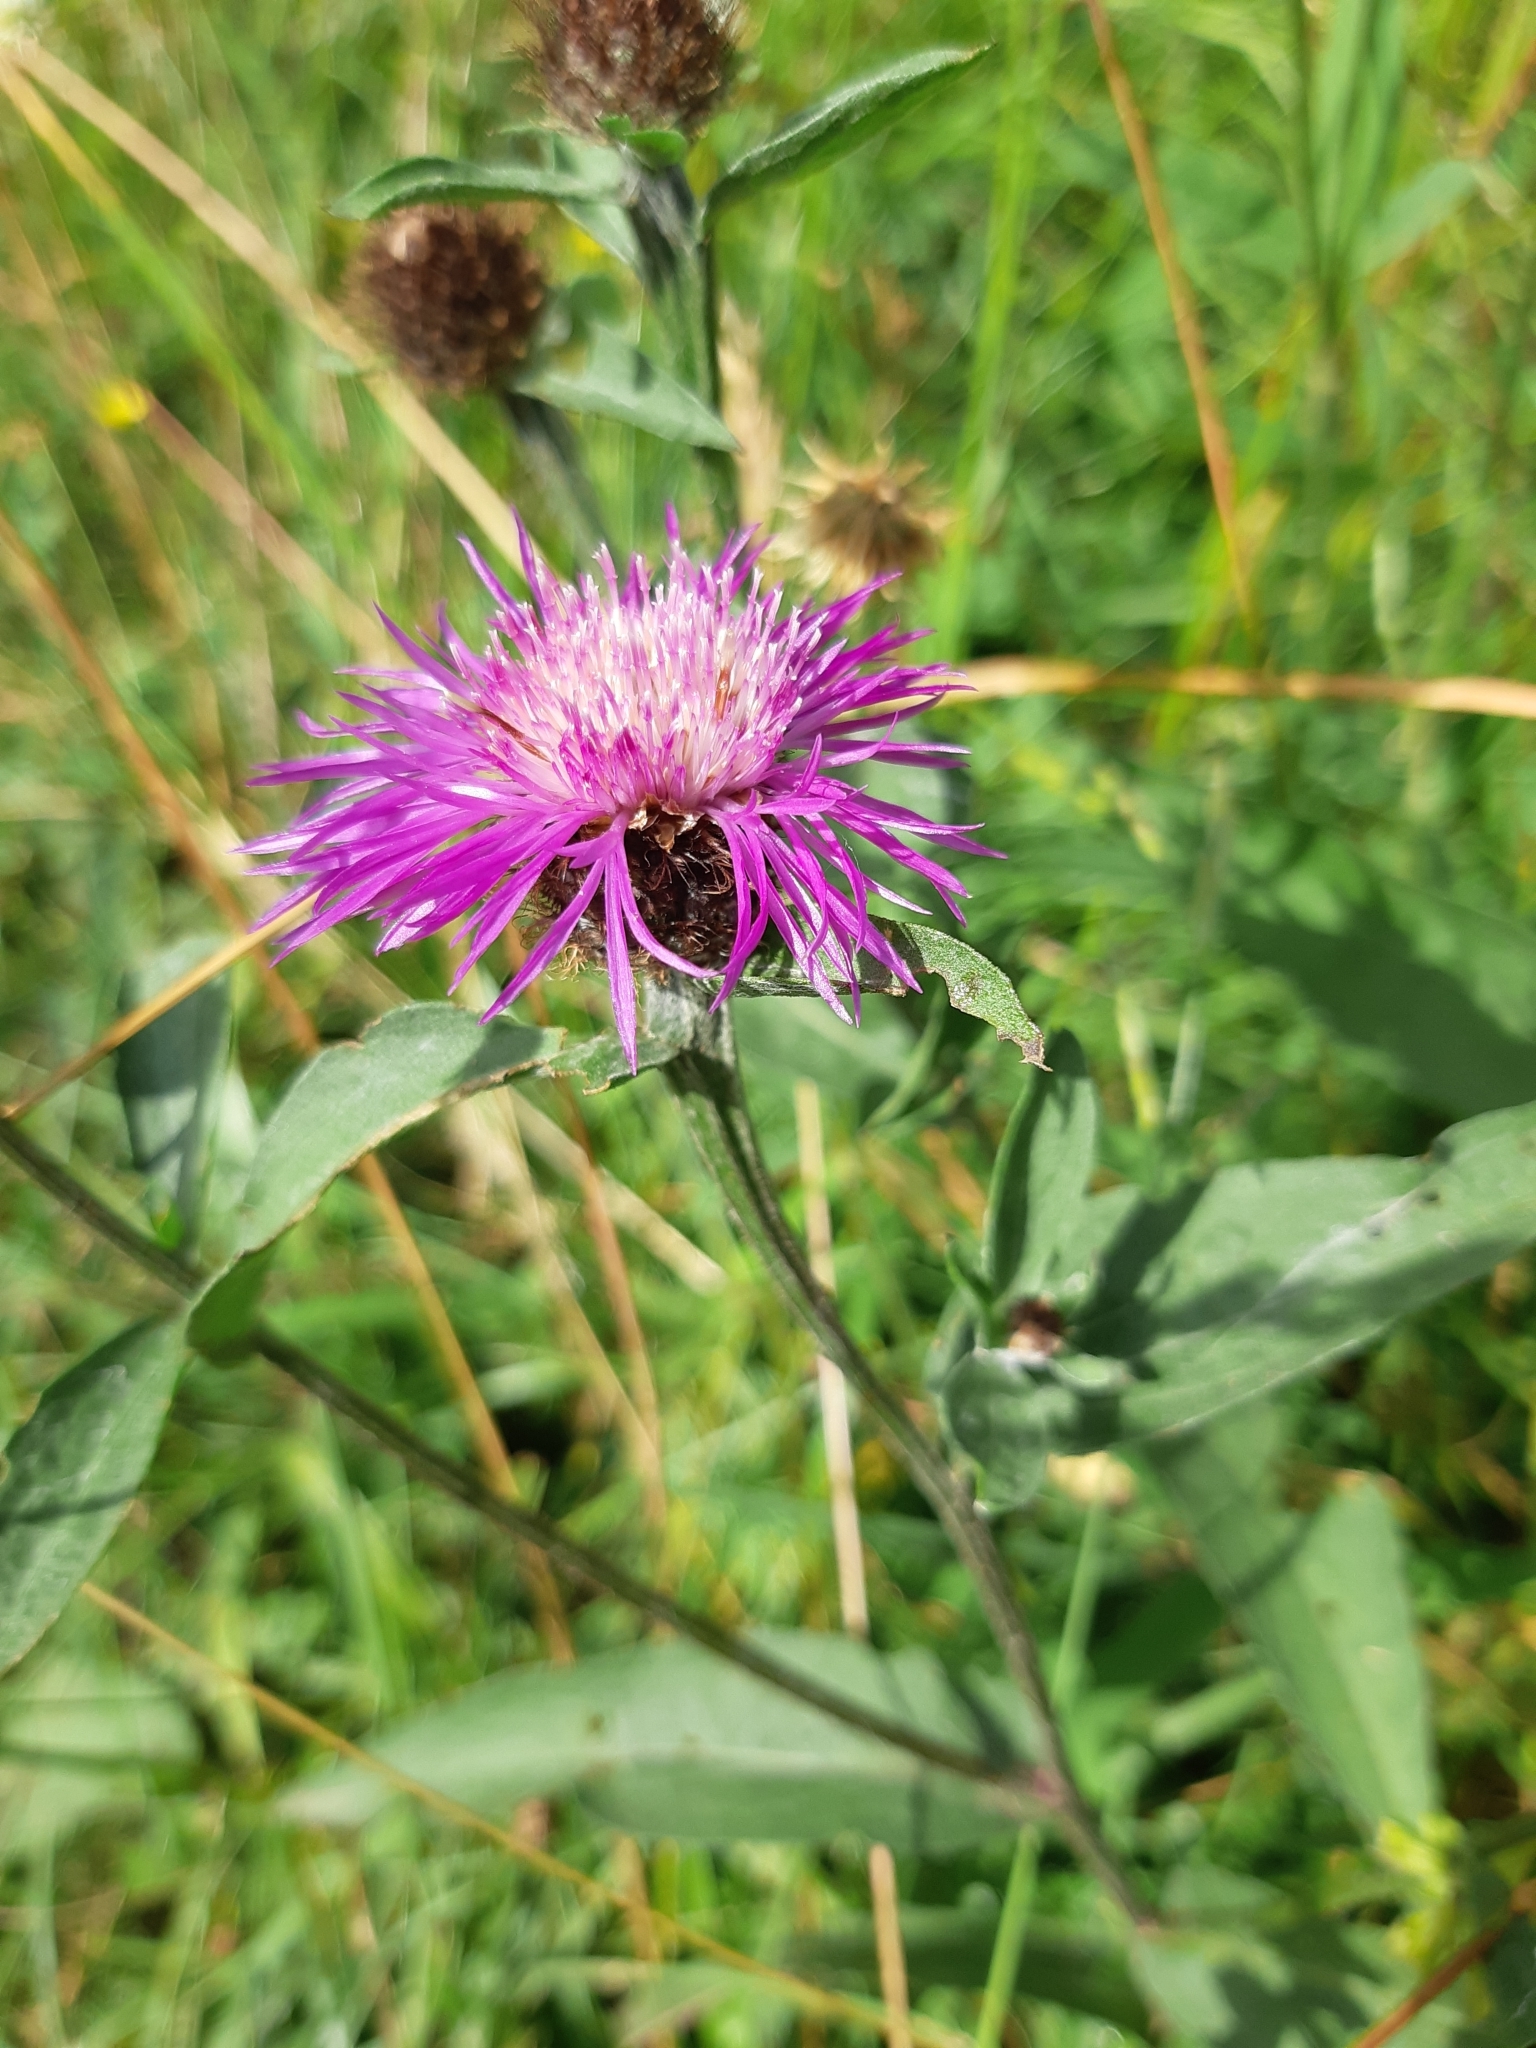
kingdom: Plantae
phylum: Tracheophyta
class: Magnoliopsida
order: Asterales
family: Asteraceae
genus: Centaurea
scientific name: Centaurea jacea
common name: Brown knapweed
